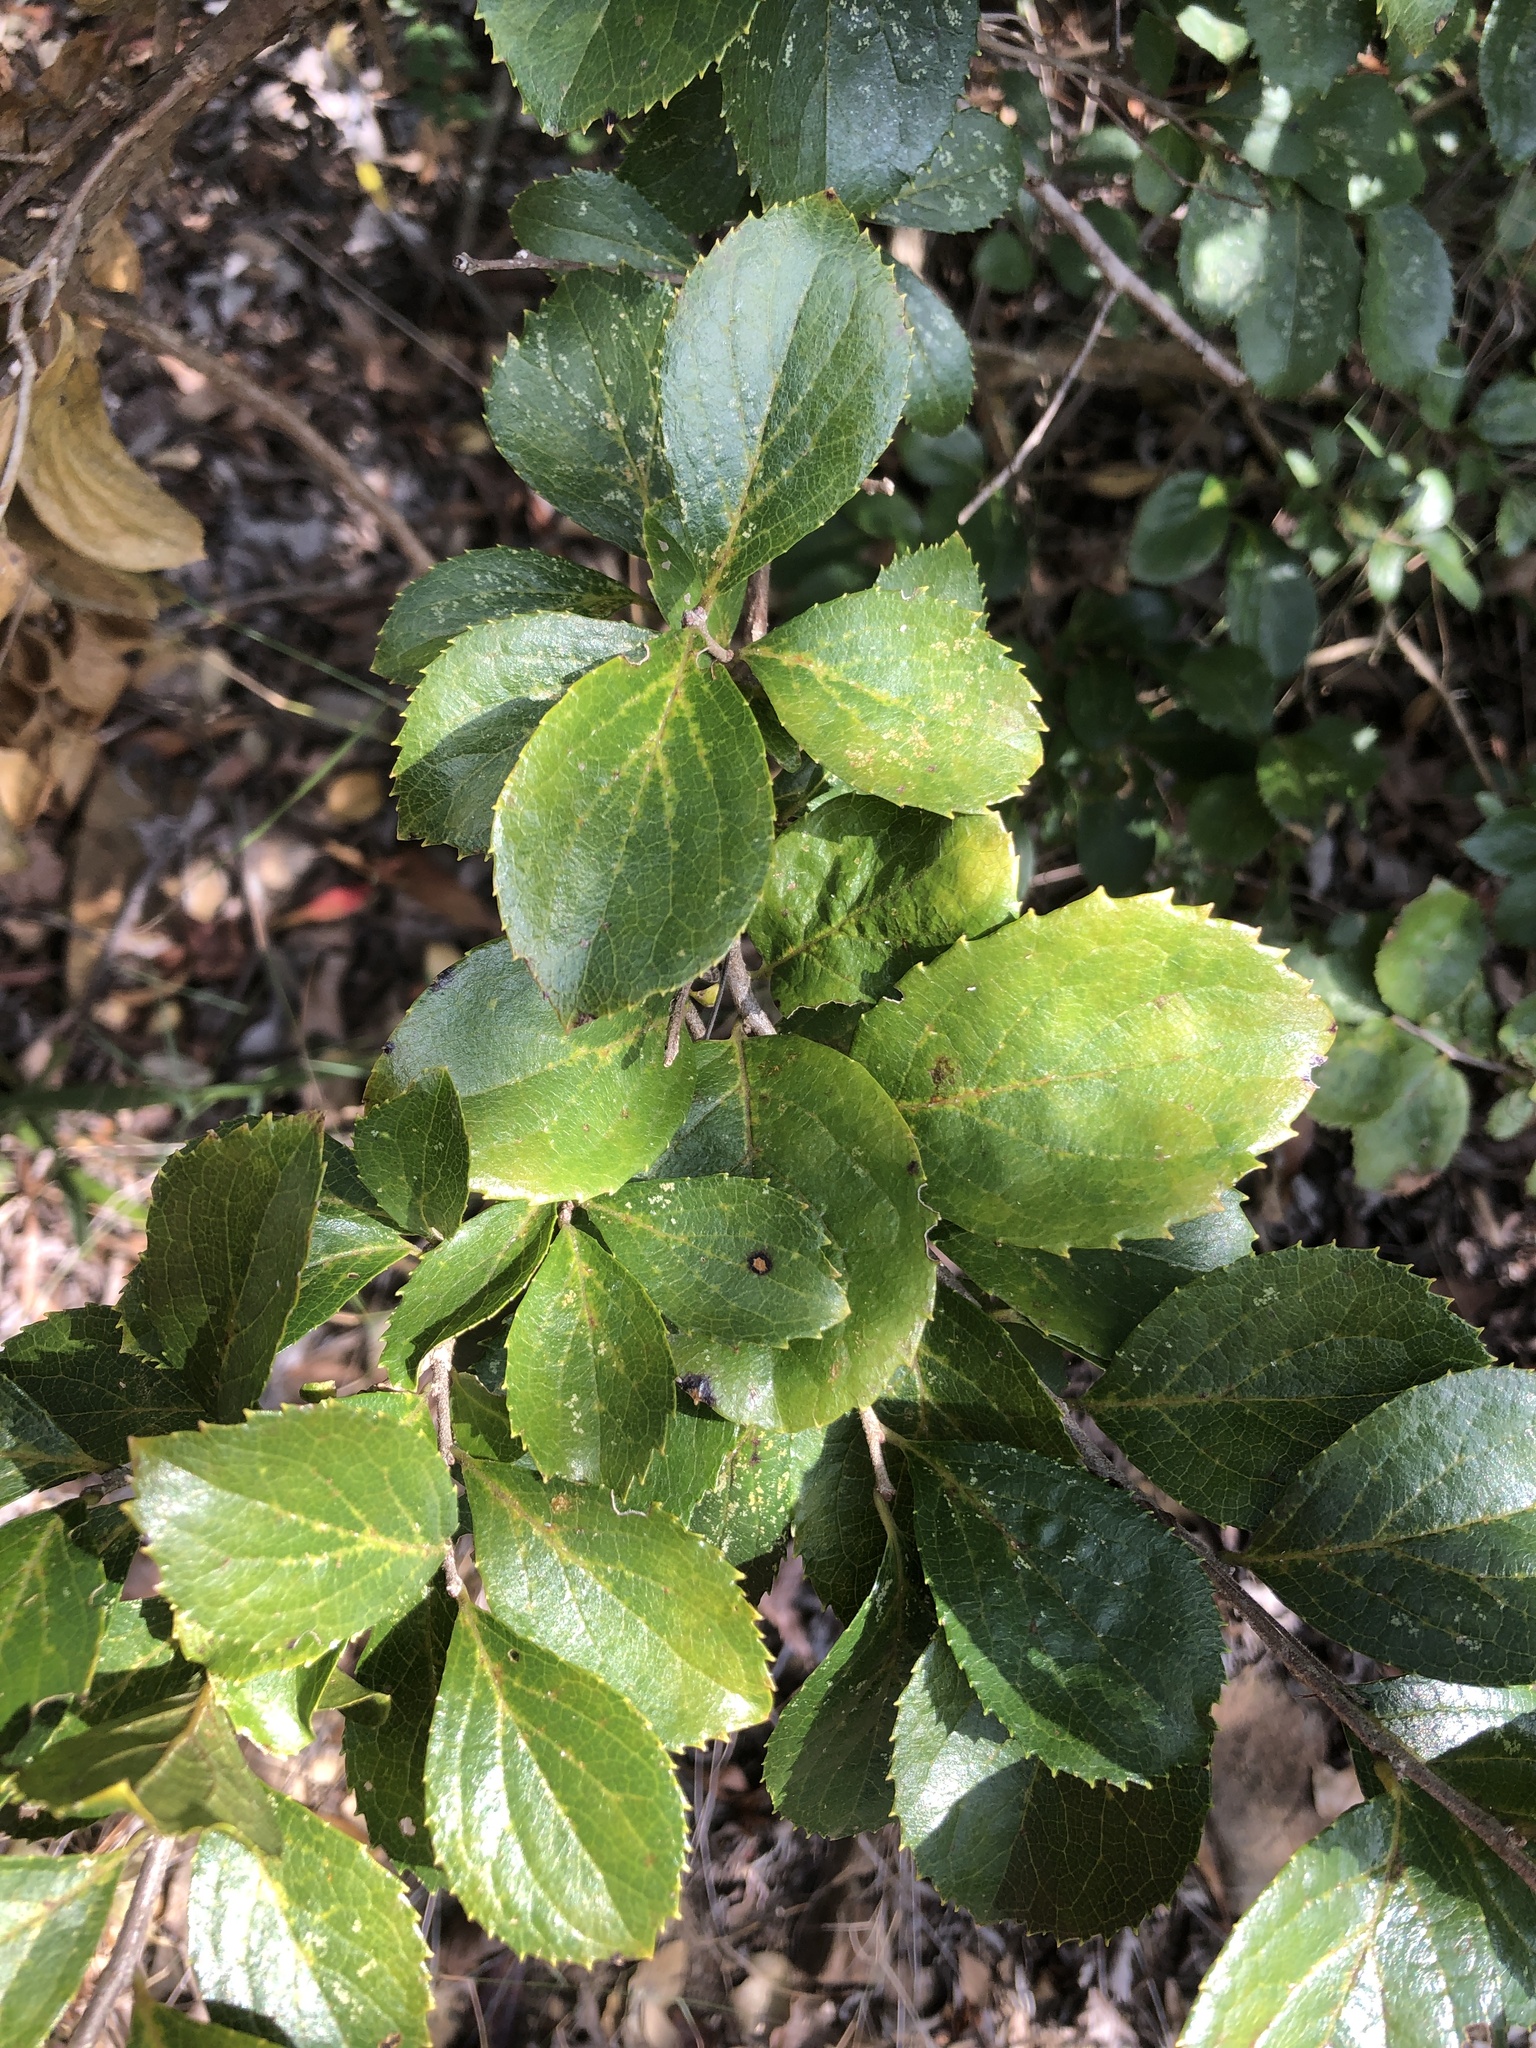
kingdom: Plantae
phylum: Tracheophyta
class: Magnoliopsida
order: Ericales
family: Symplocaceae
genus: Symplocos
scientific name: Symplocos paniculata
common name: Sapphire-berry
